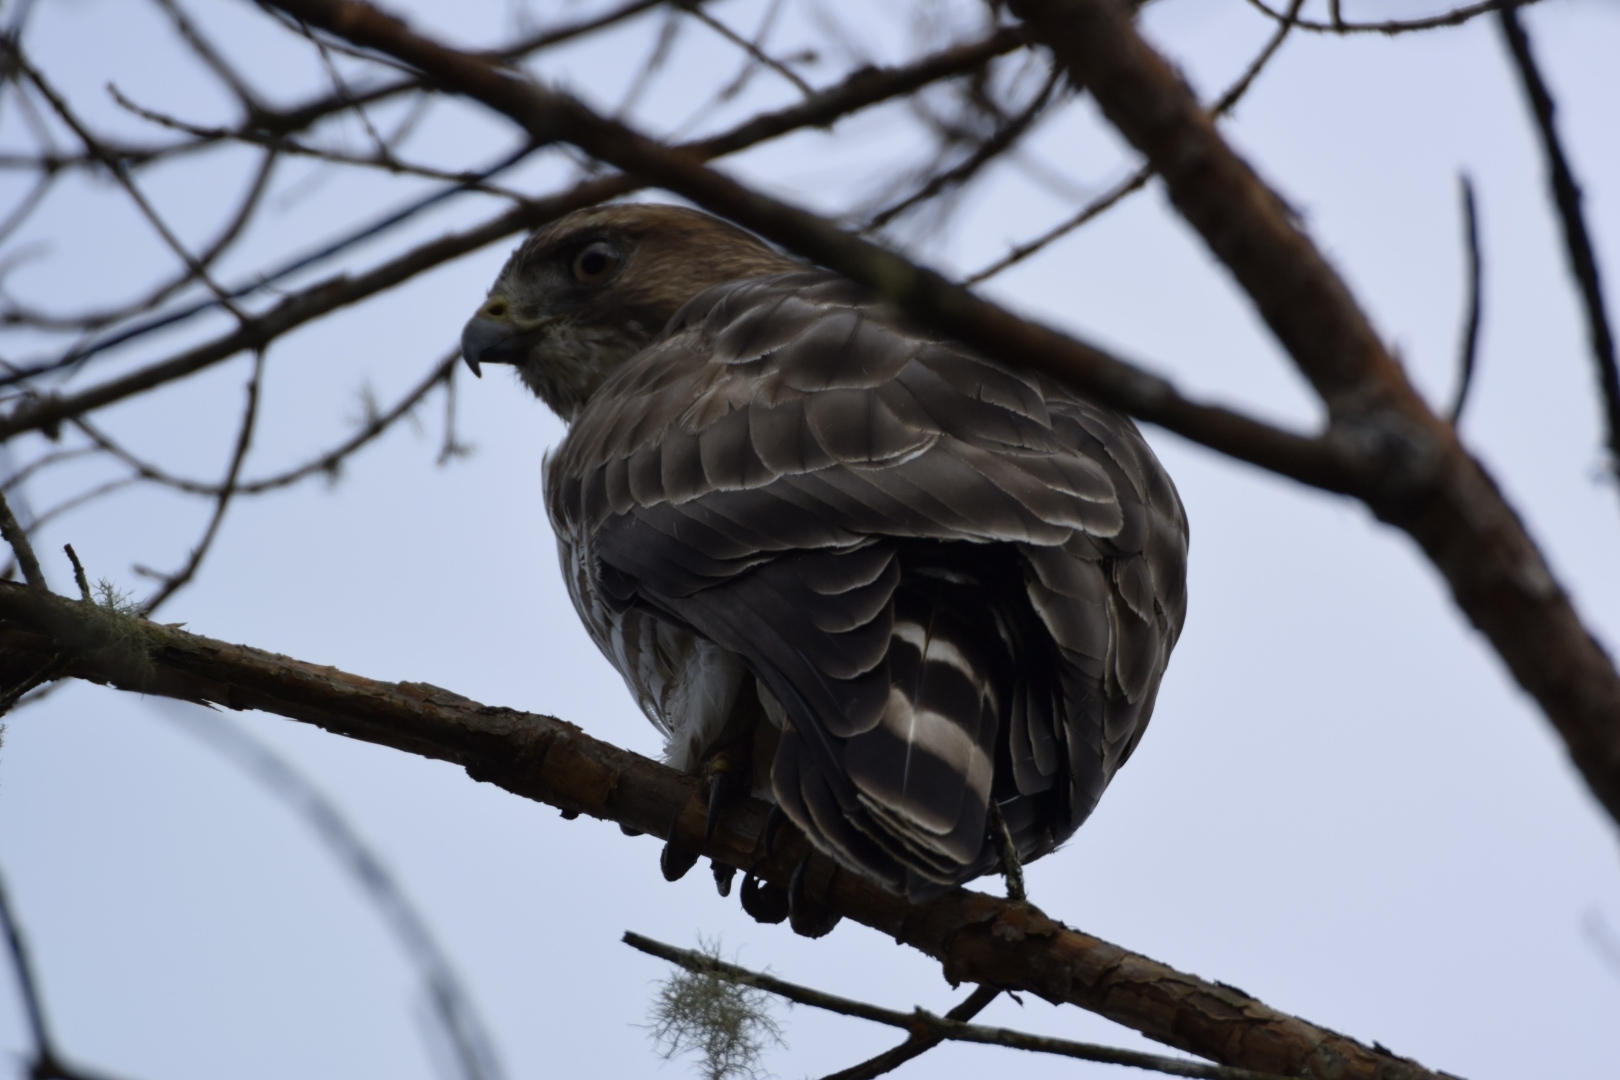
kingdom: Animalia
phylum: Chordata
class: Aves
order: Accipitriformes
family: Accipitridae
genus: Buteo
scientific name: Buteo platypterus
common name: Broad-winged hawk
